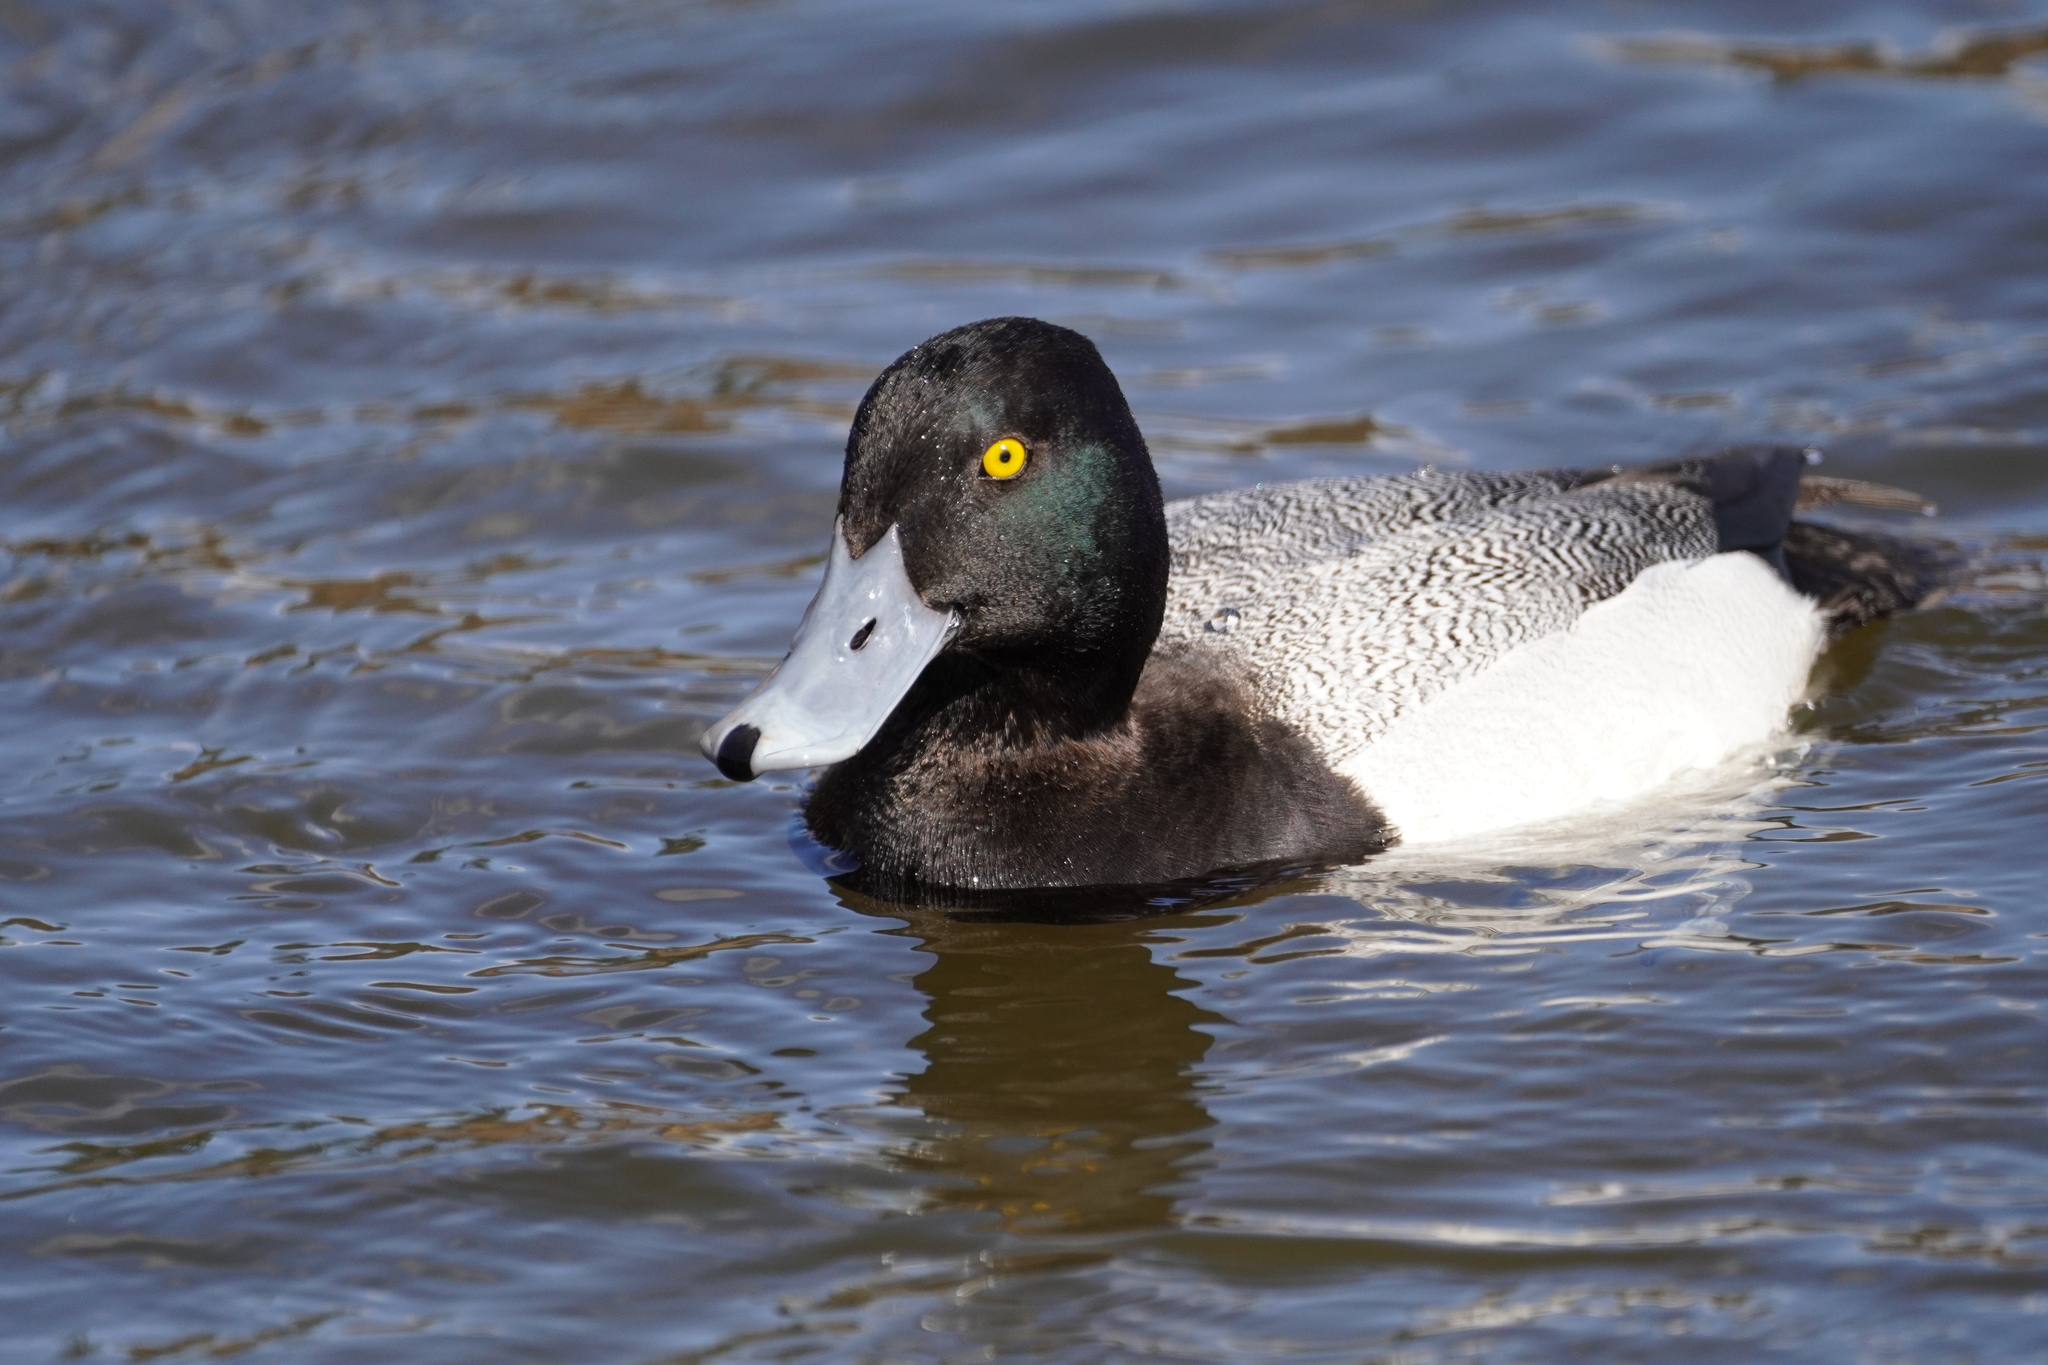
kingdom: Animalia
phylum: Chordata
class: Aves
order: Anseriformes
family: Anatidae
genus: Aythya
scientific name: Aythya affinis
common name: Lesser scaup
